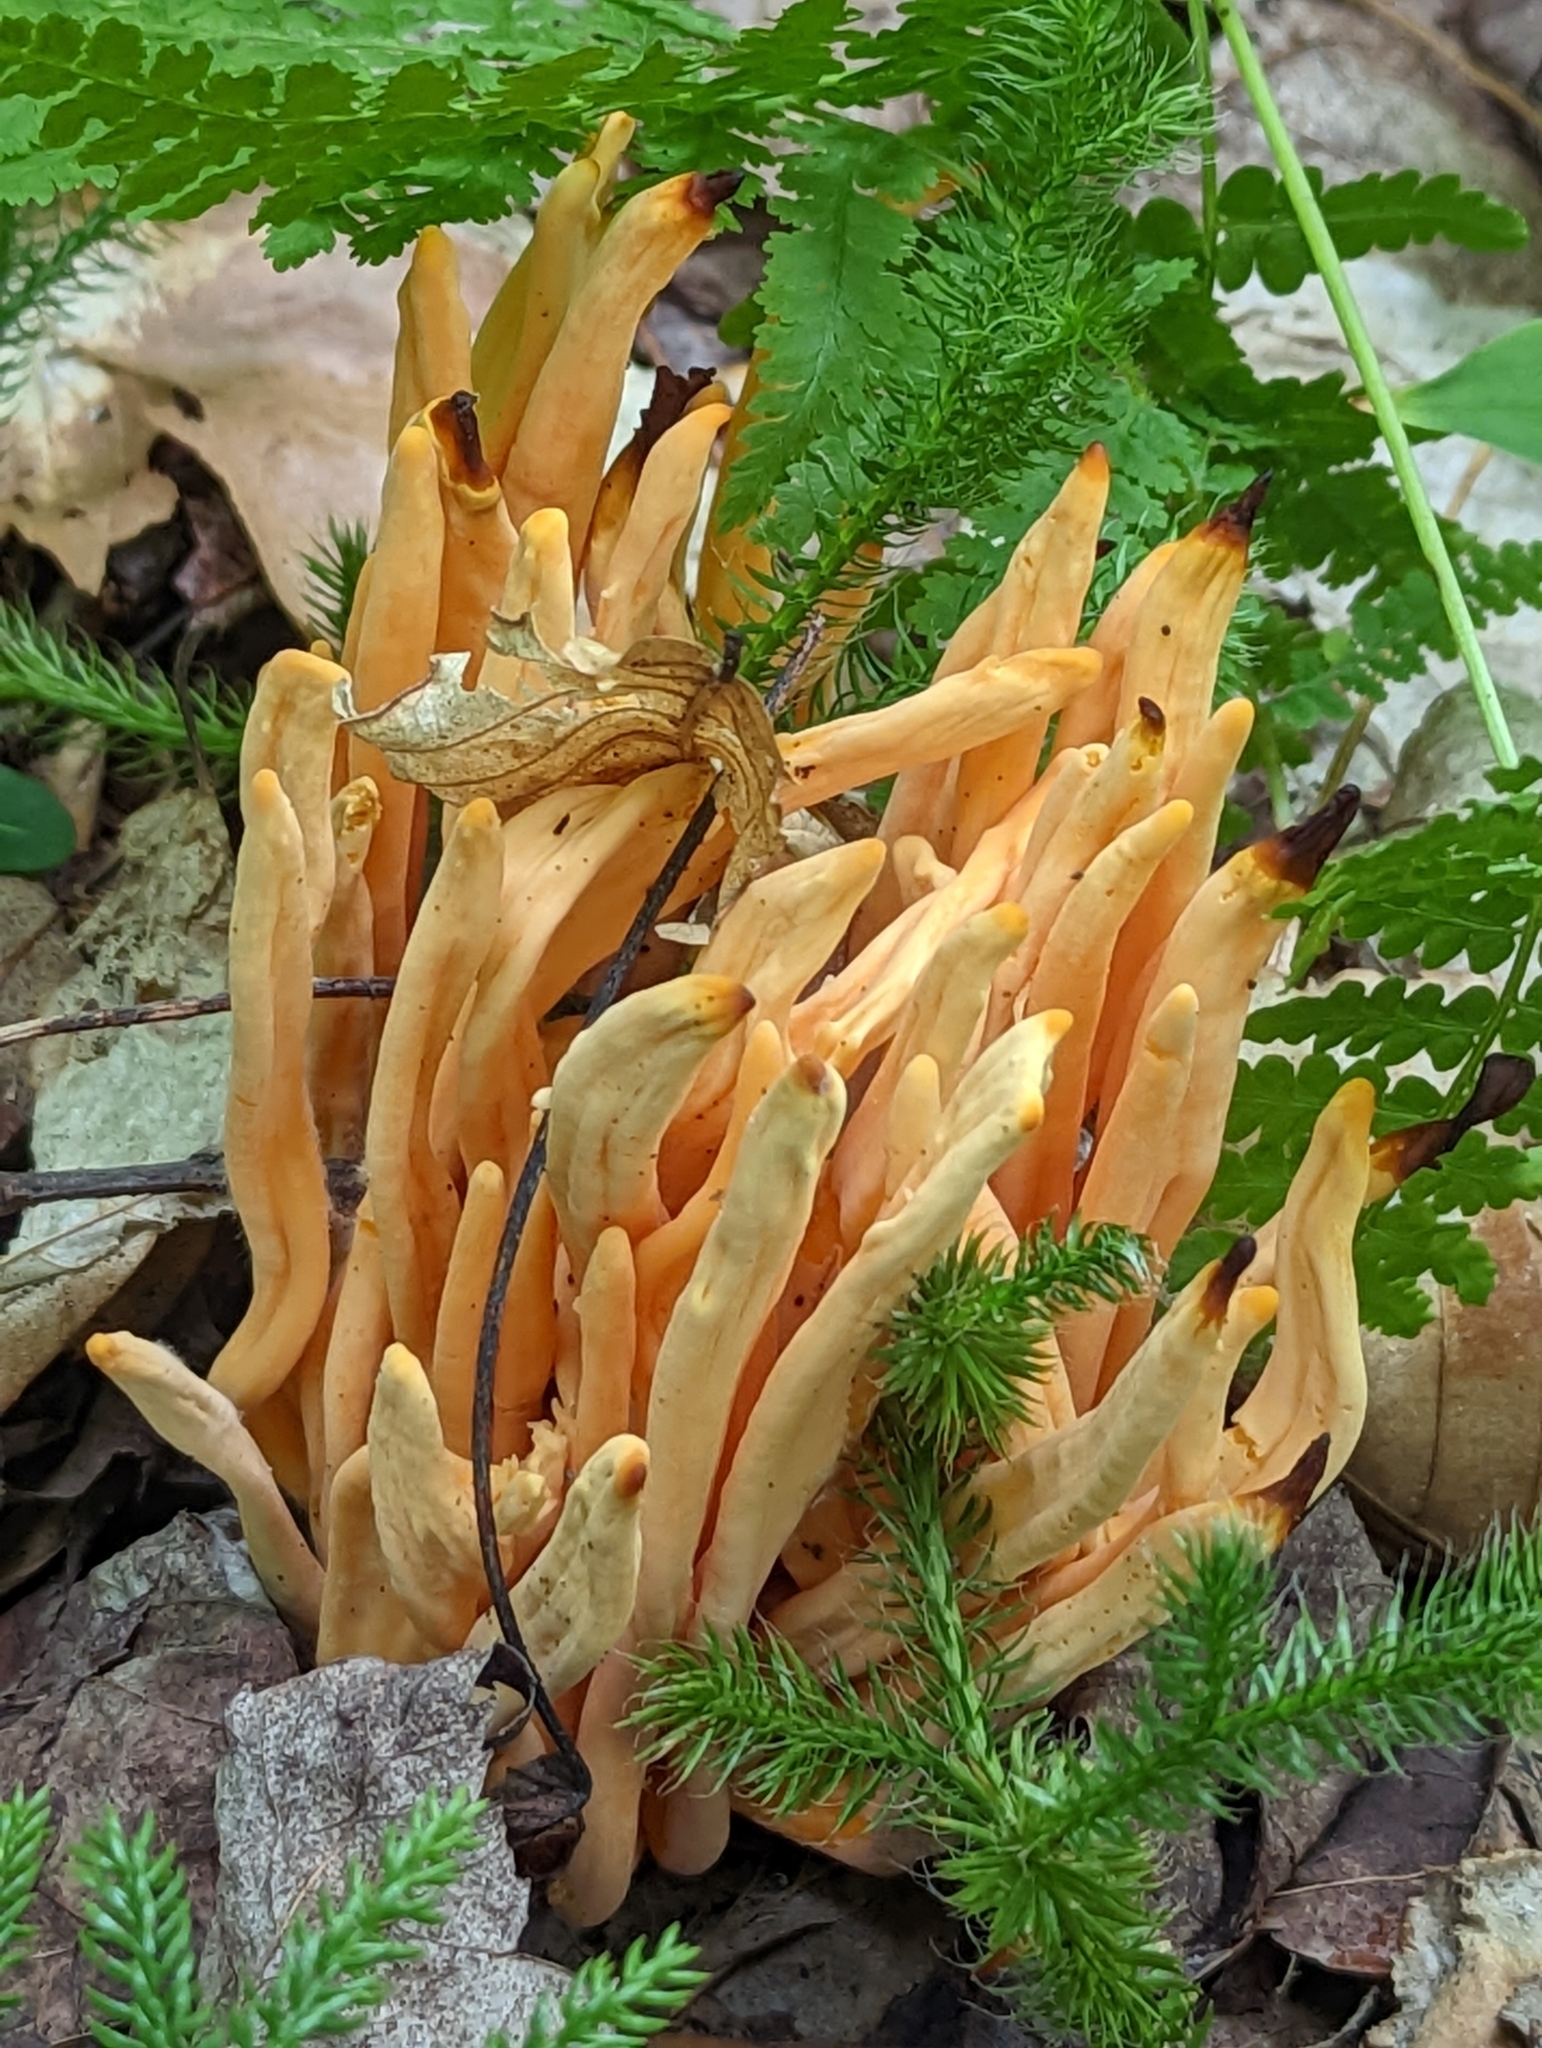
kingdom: Fungi
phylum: Basidiomycota
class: Agaricomycetes
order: Agaricales
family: Clavariaceae
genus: Clavulinopsis
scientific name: Clavulinopsis aurantiocinnabarina
